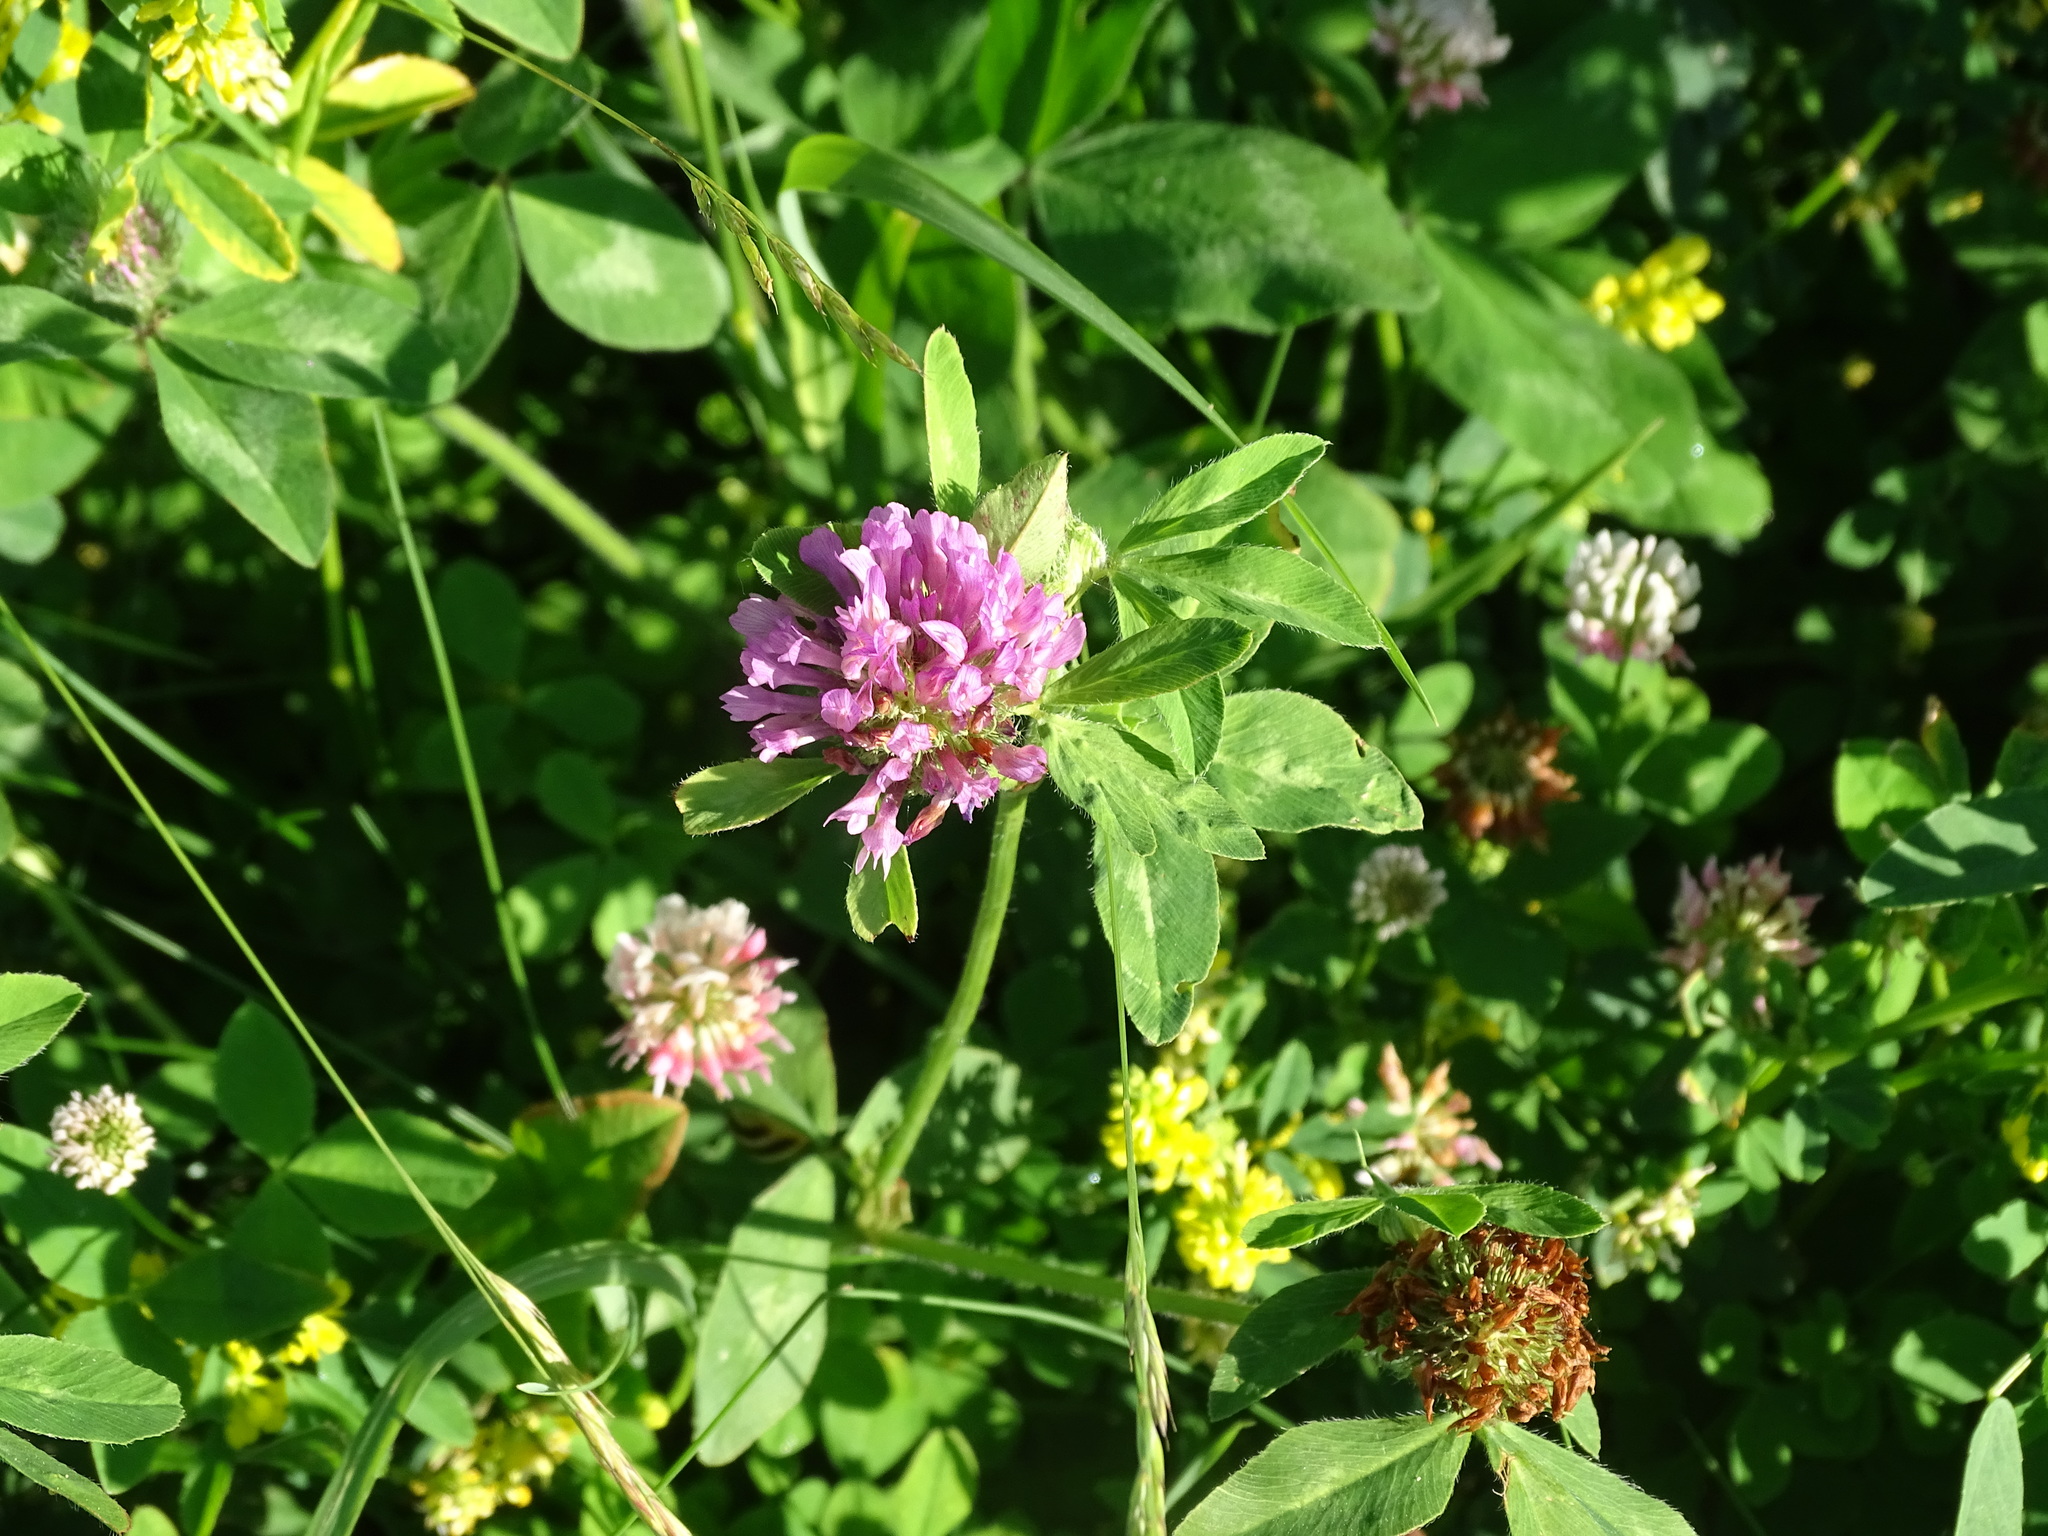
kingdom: Plantae
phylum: Tracheophyta
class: Magnoliopsida
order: Fabales
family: Fabaceae
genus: Trifolium
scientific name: Trifolium pratense
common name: Red clover
